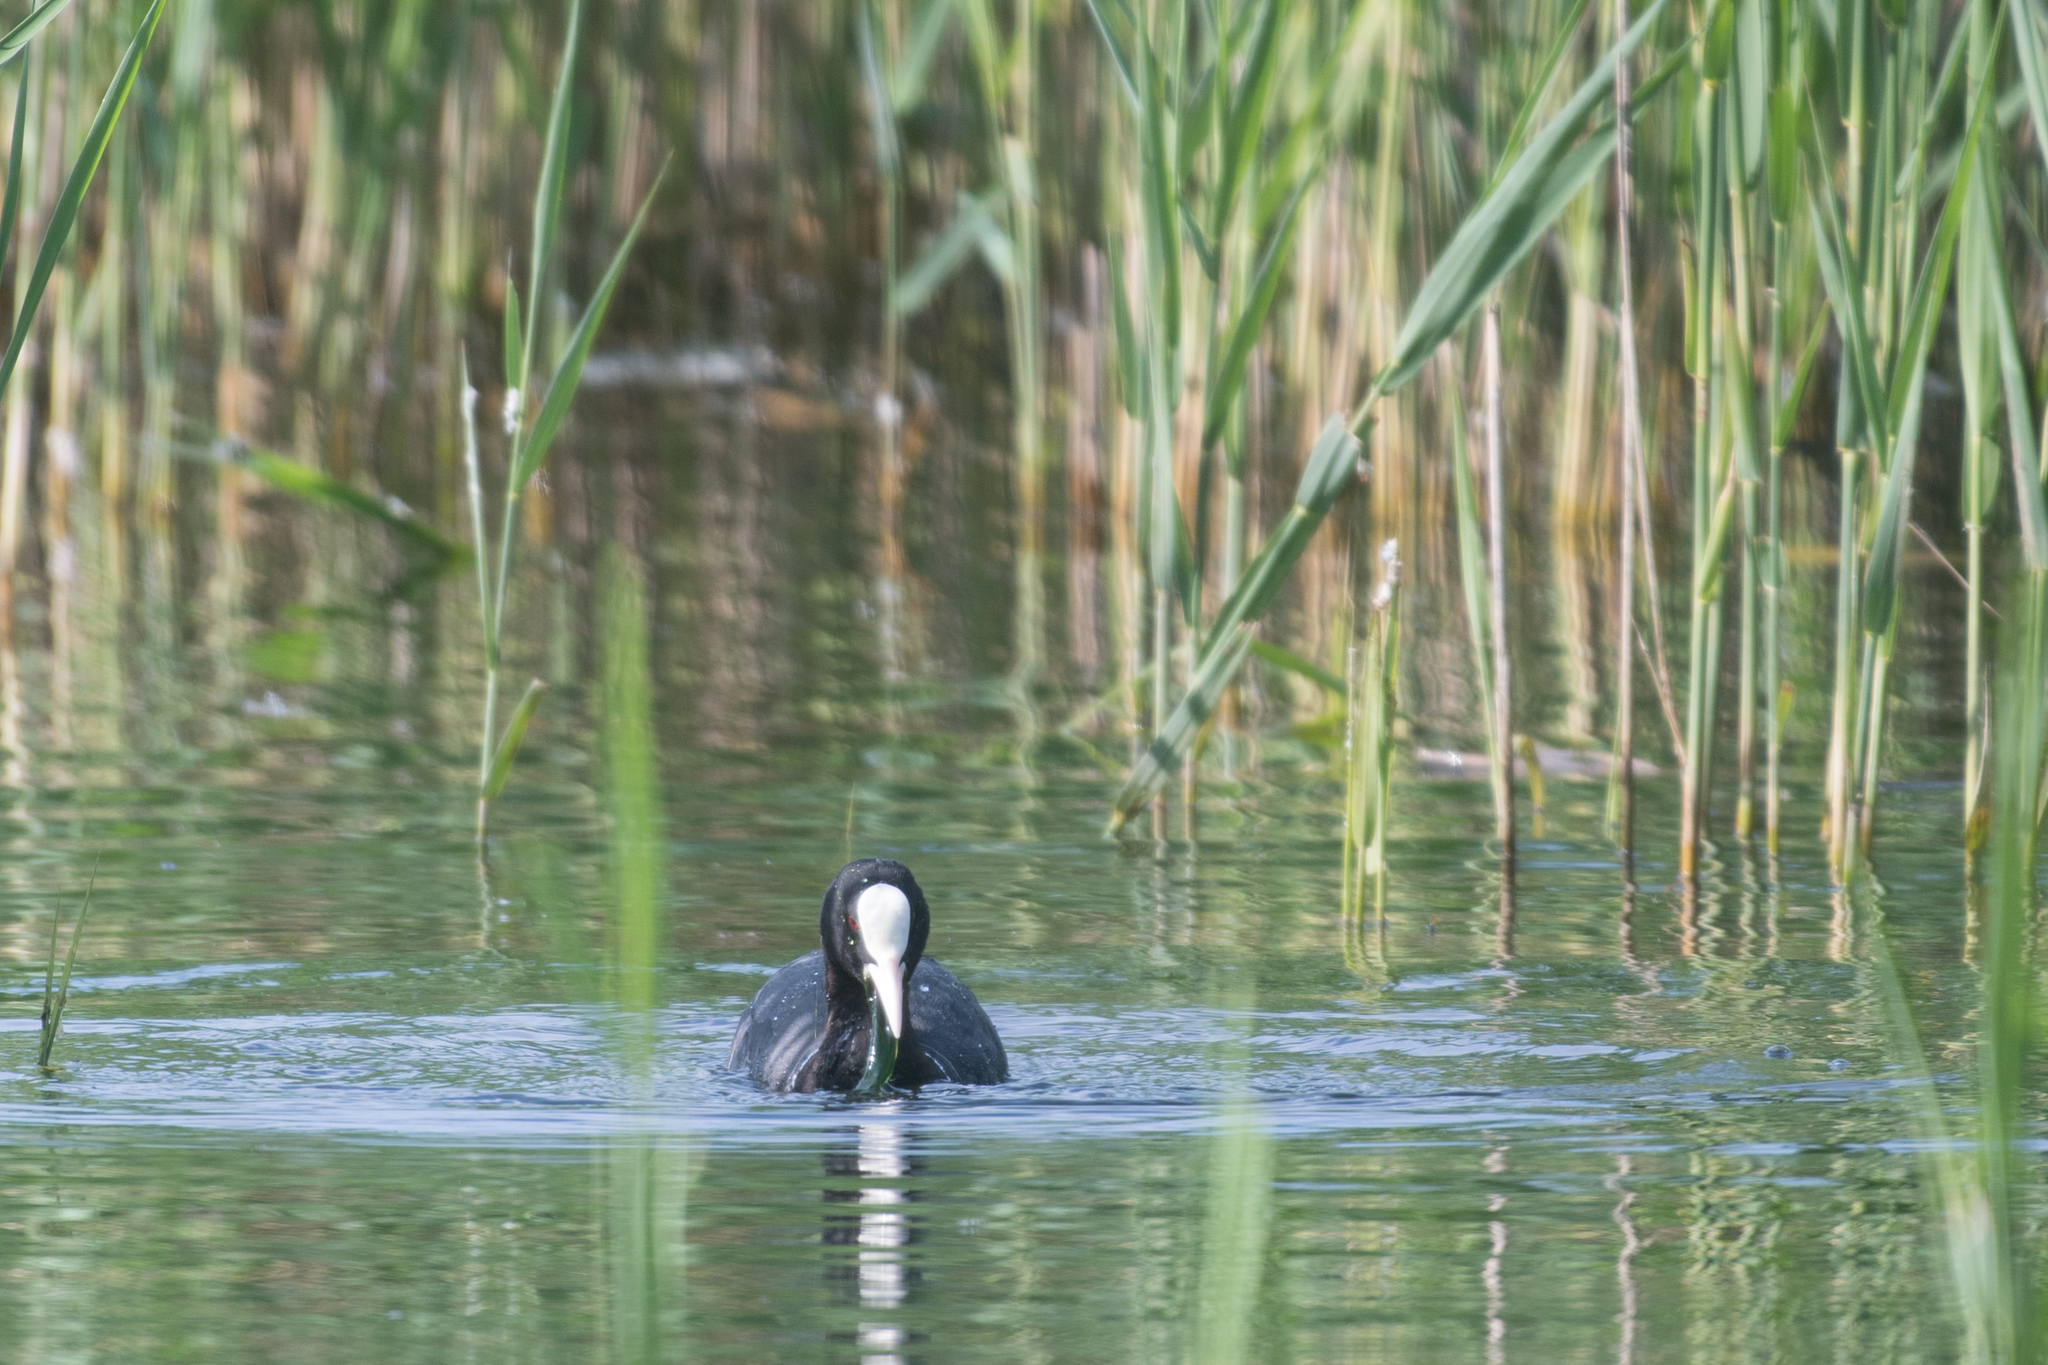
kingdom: Animalia
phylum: Chordata
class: Aves
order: Gruiformes
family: Rallidae
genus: Fulica
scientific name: Fulica atra
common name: Eurasian coot
